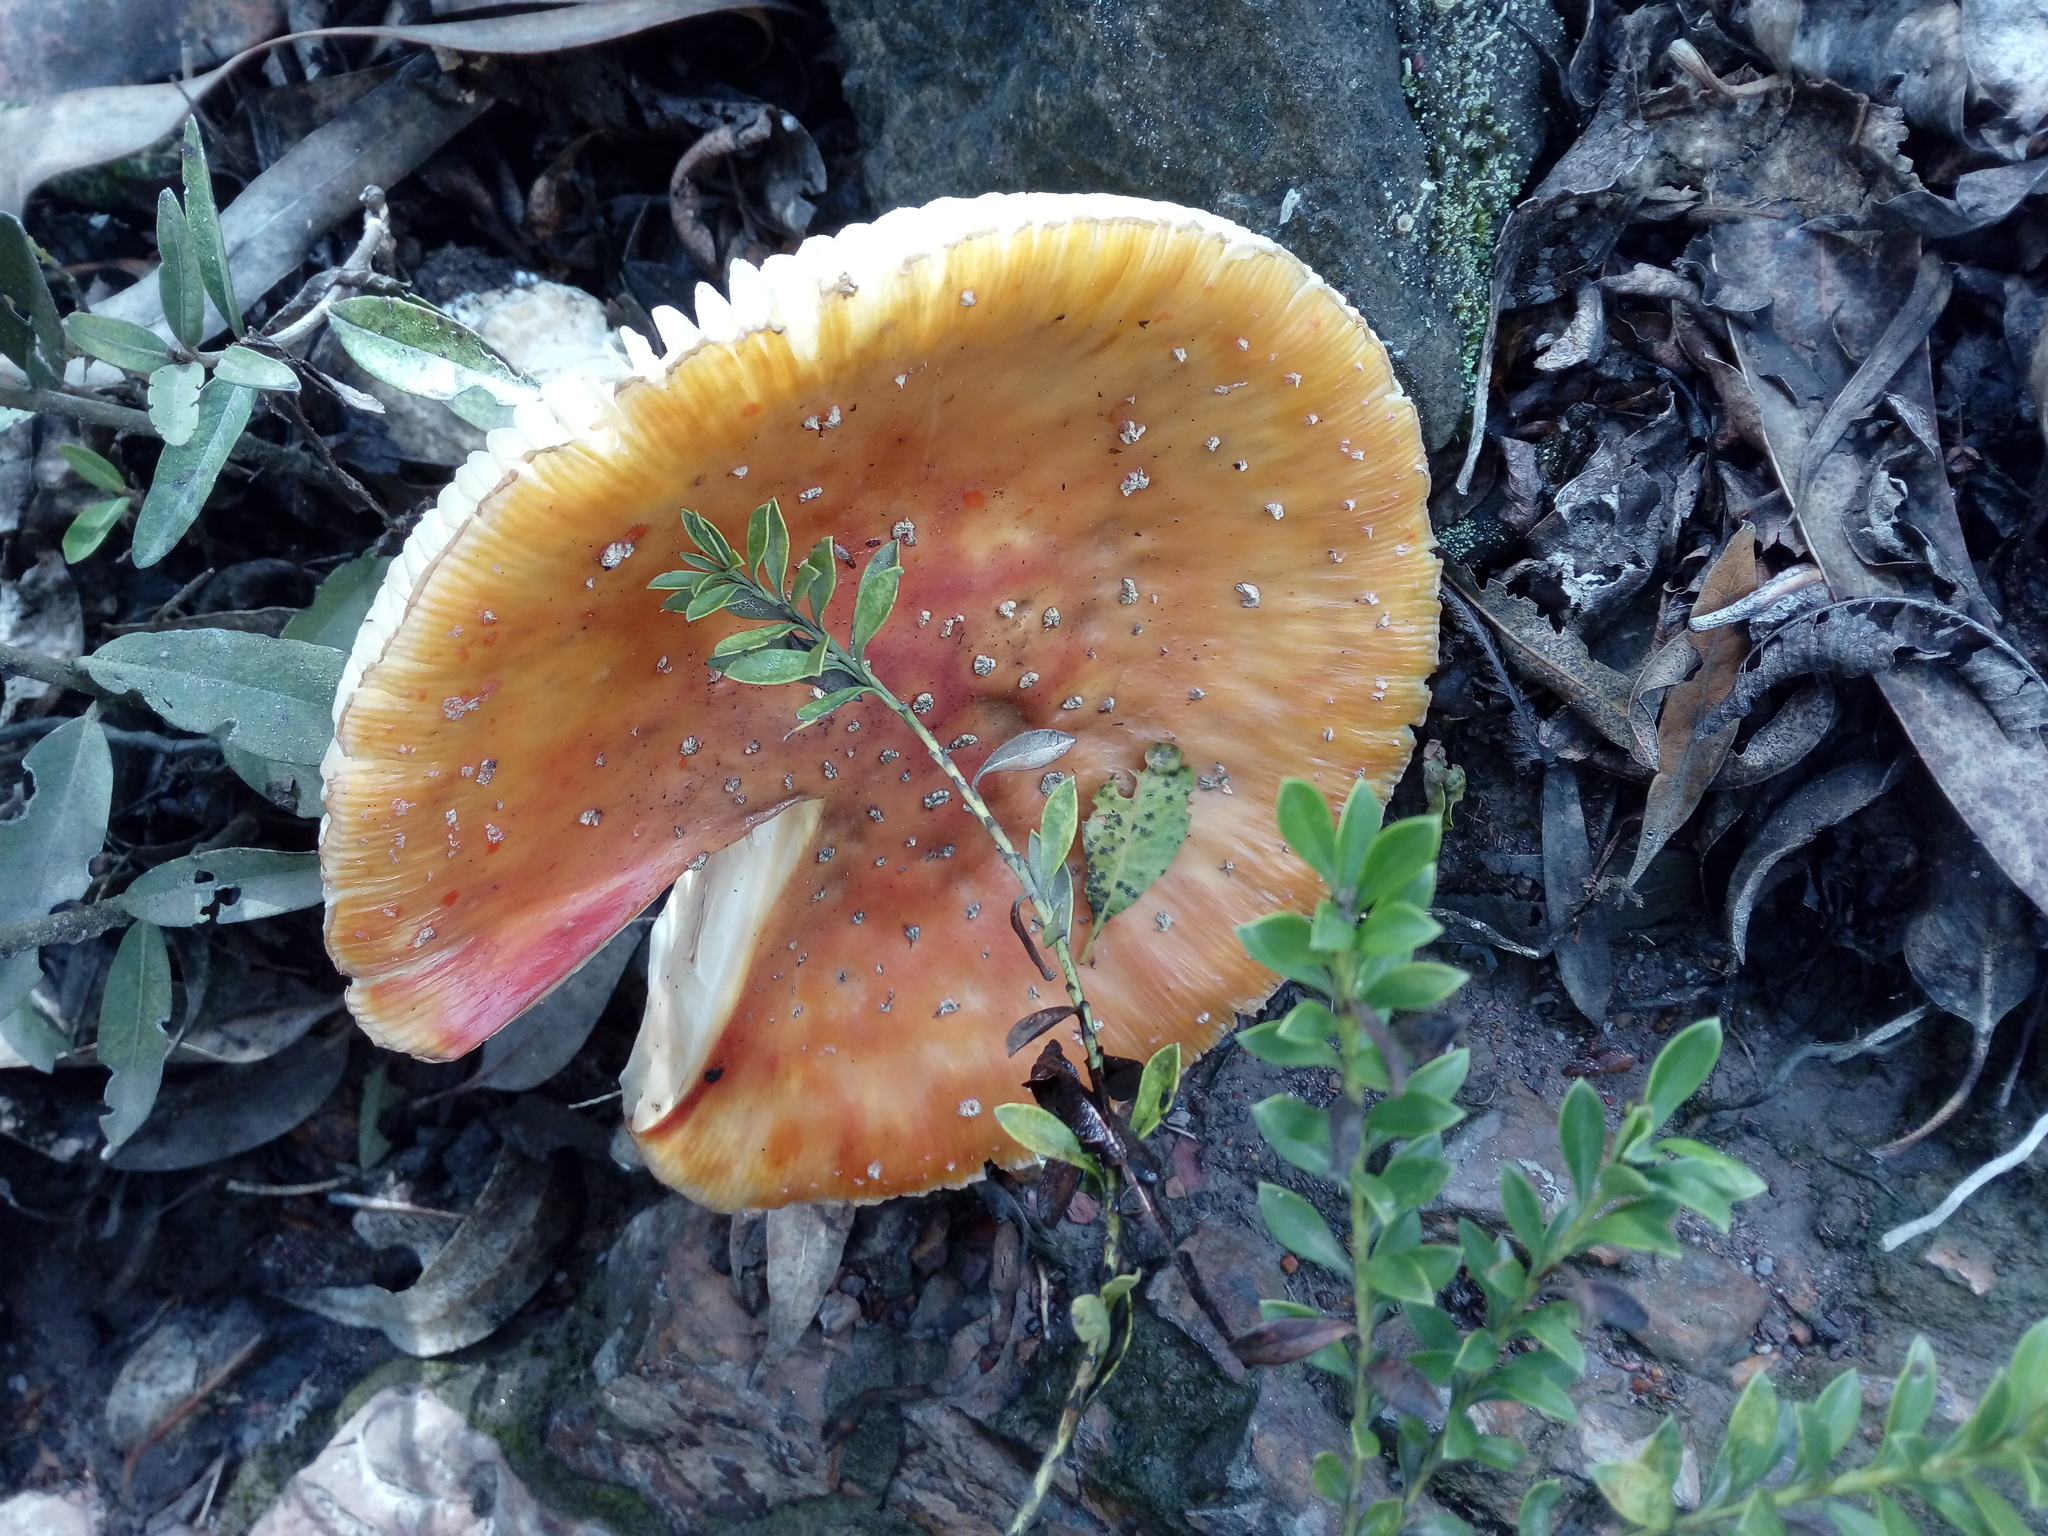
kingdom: Fungi
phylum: Basidiomycota
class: Agaricomycetes
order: Agaricales
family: Amanitaceae
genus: Amanita
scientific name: Amanita muscaria
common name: Fly agaric
